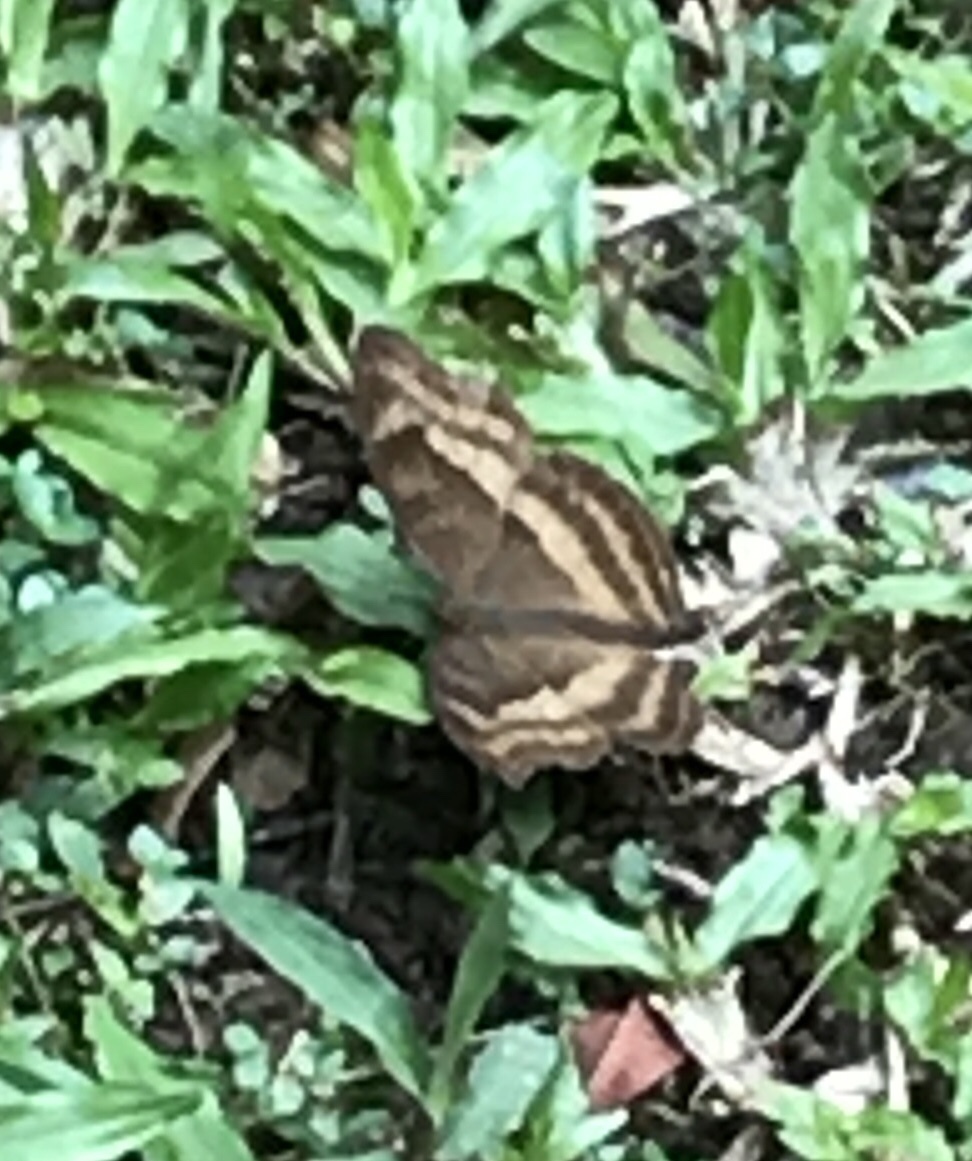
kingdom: Animalia
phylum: Arthropoda
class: Insecta
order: Lepidoptera
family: Nymphalidae
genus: Junonia
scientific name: Junonia iphita
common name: Chocolate pansy
